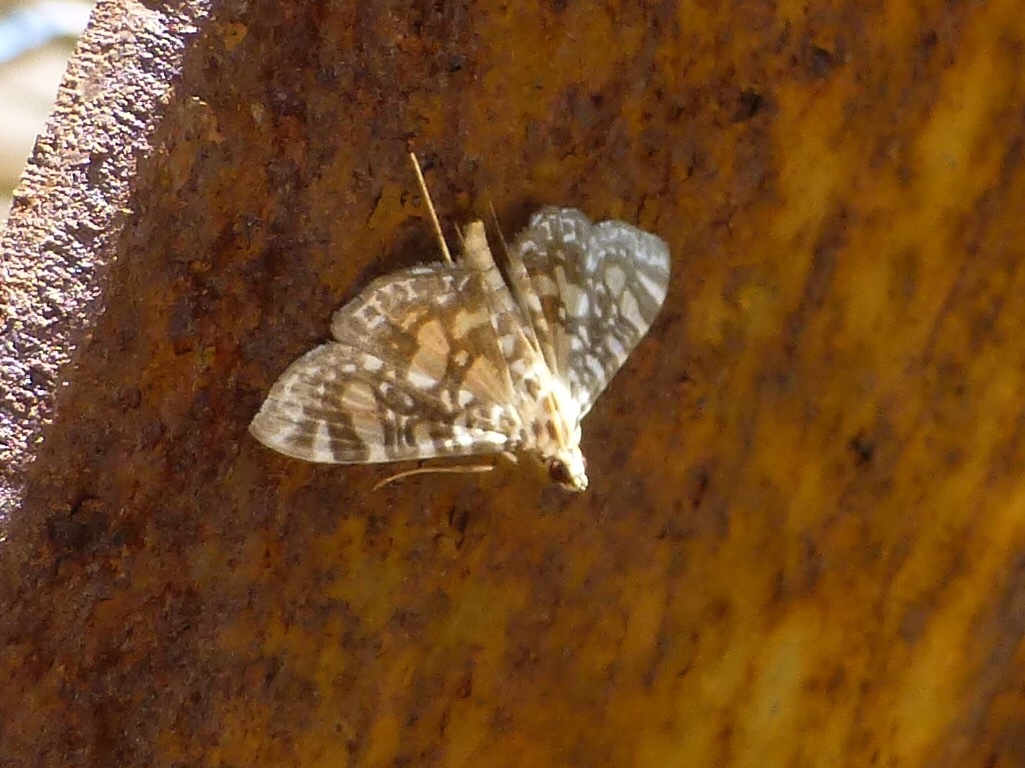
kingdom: Animalia
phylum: Arthropoda
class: Insecta
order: Lepidoptera
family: Crambidae
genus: Glyphodes
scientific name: Glyphodes onychinalis
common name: Swan plant moth
